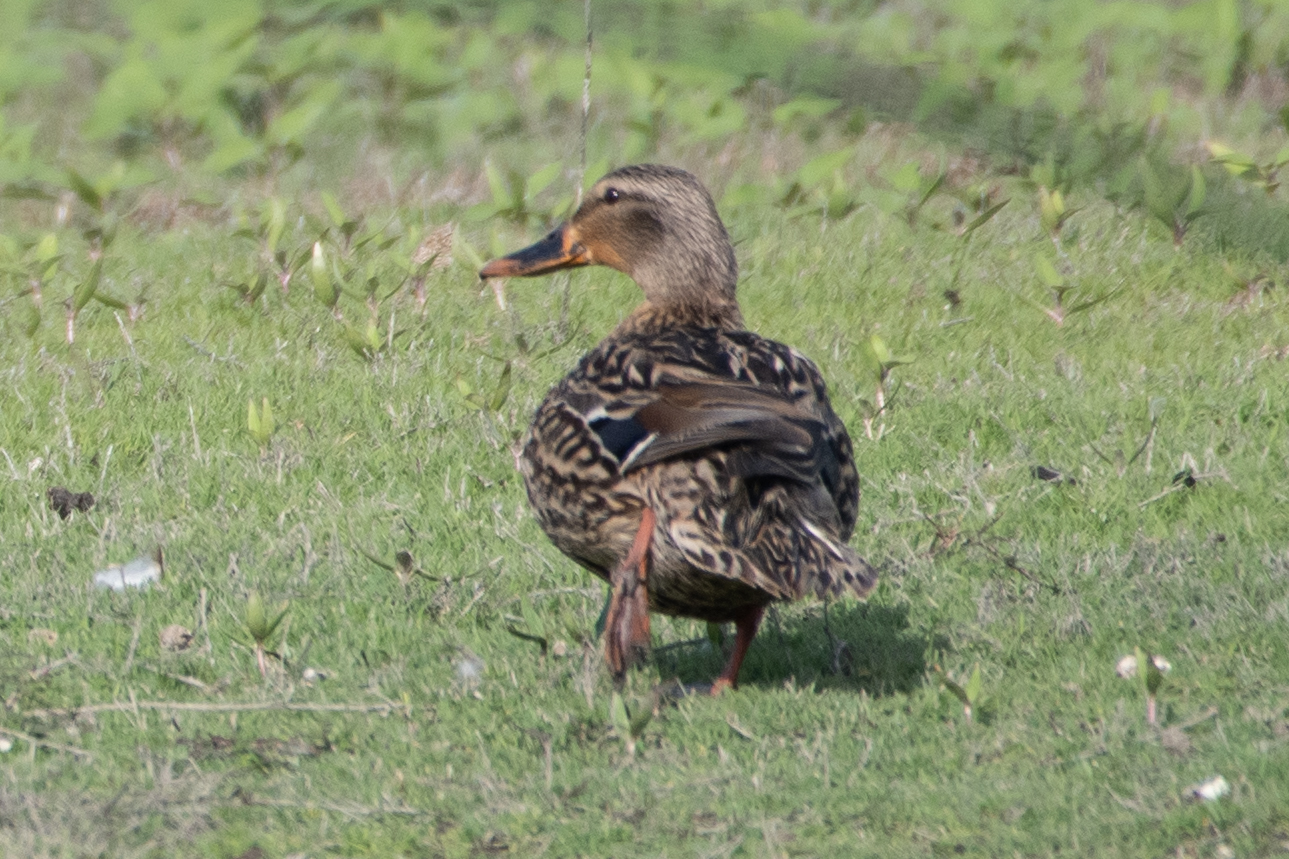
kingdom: Animalia
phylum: Chordata
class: Aves
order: Anseriformes
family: Anatidae
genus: Anas
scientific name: Anas platyrhynchos
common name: Mallard
